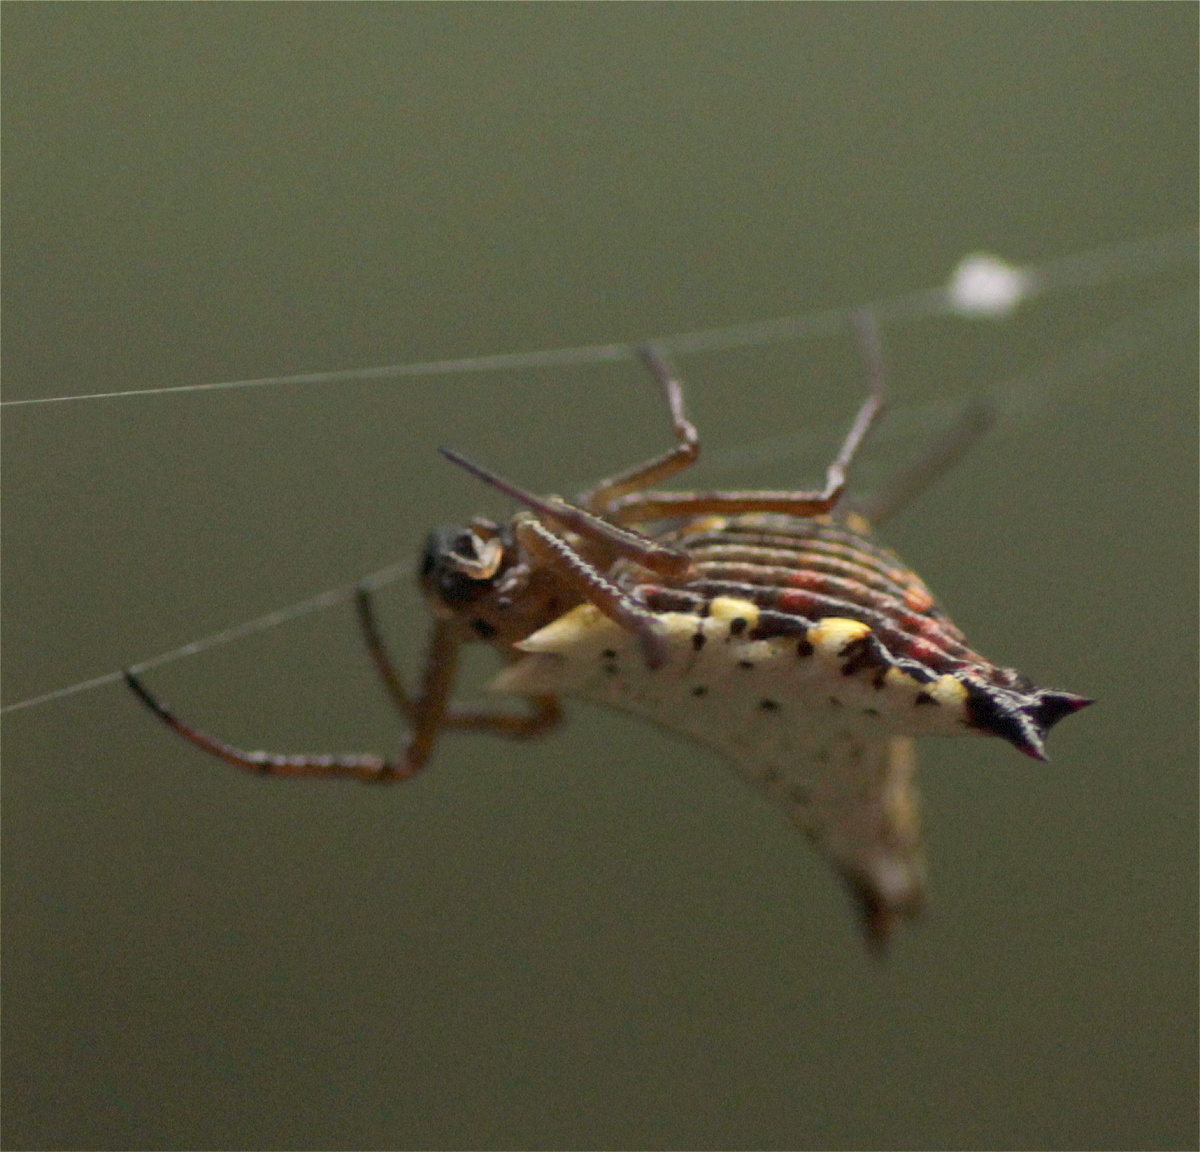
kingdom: Animalia
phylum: Arthropoda
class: Arachnida
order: Araneae
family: Araneidae
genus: Micrathena
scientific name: Micrathena lucasi
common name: Orb weavers
